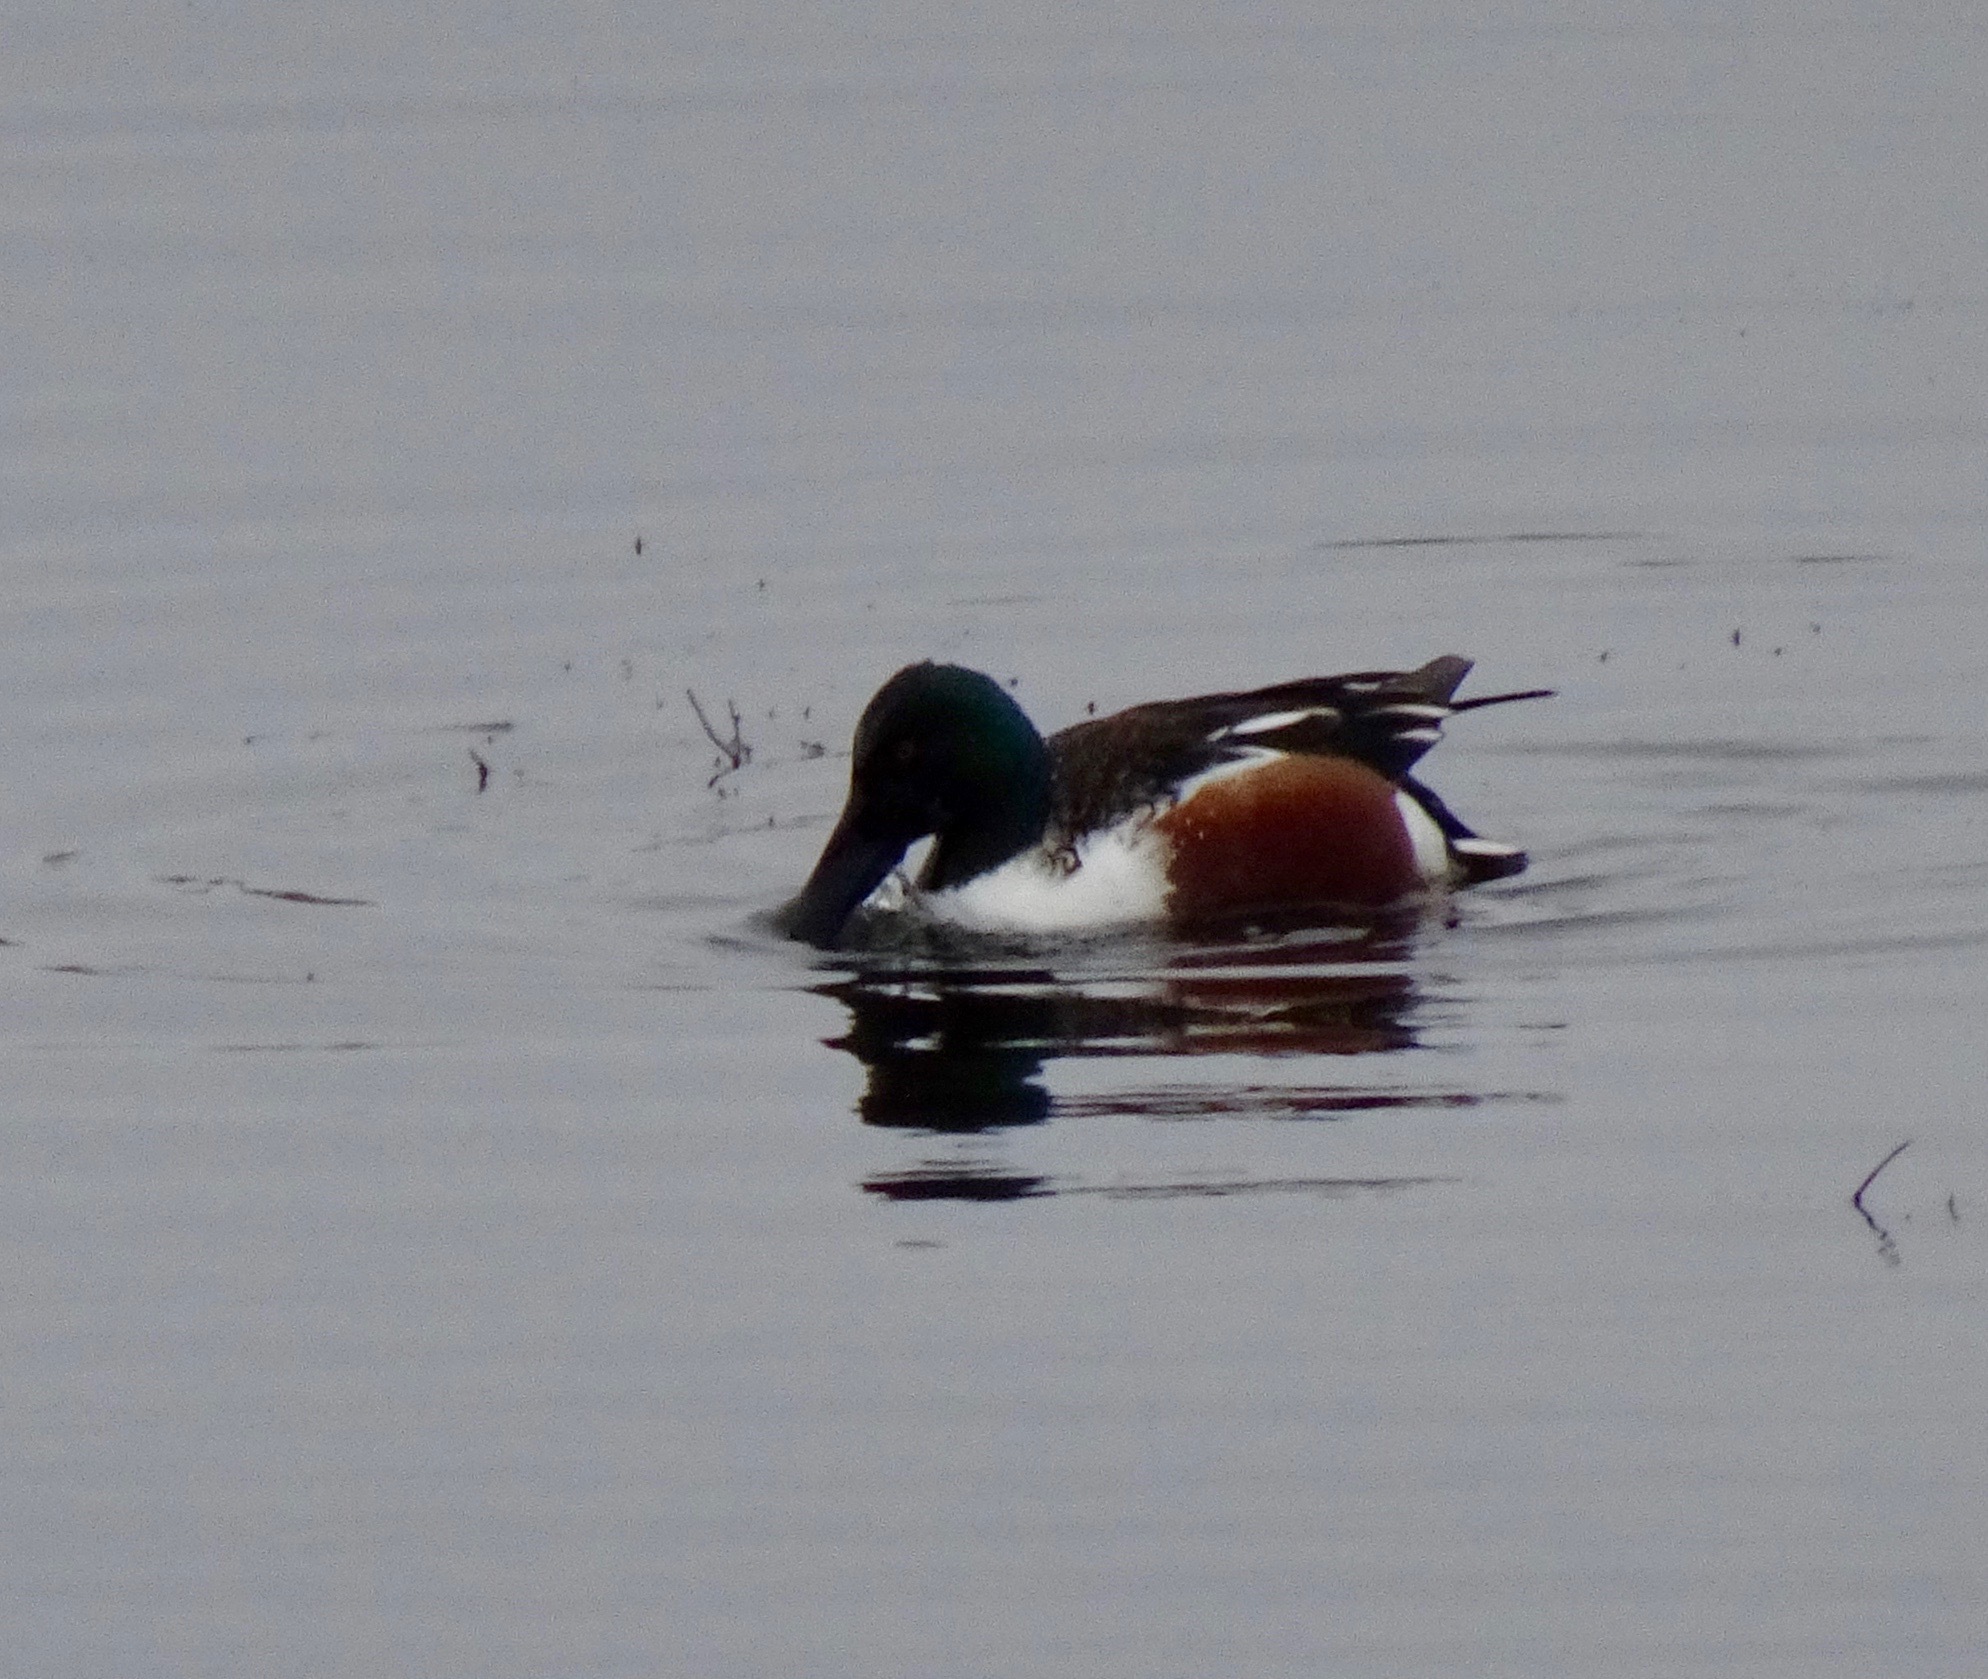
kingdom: Animalia
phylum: Chordata
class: Aves
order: Anseriformes
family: Anatidae
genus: Spatula
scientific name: Spatula clypeata
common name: Northern shoveler
